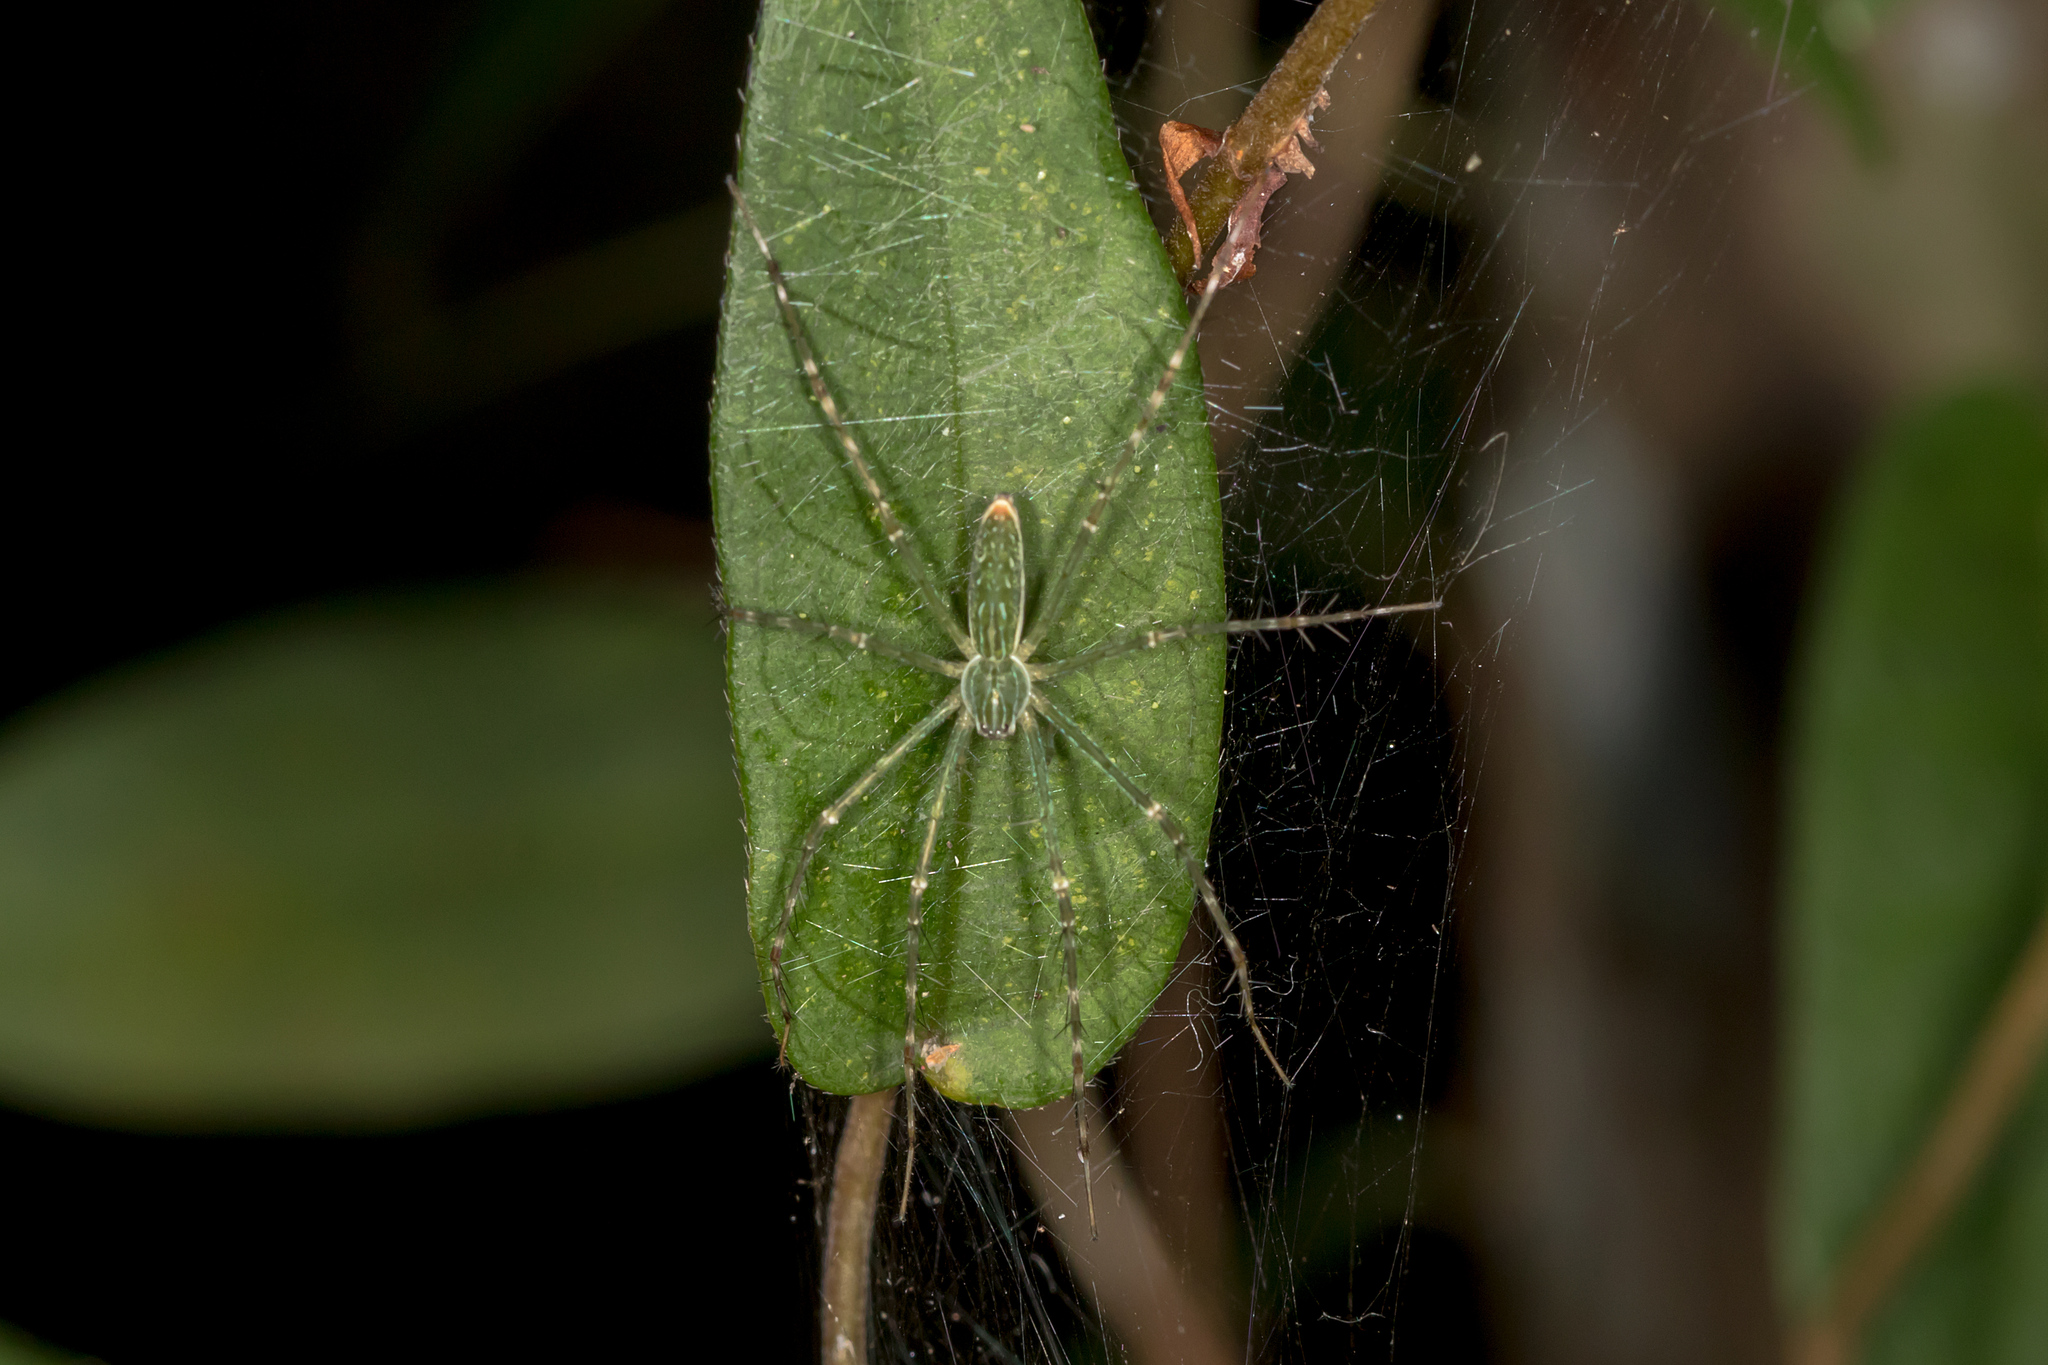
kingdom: Animalia
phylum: Arthropoda
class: Arachnida
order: Araneae
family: Pisauridae
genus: Hygropoda
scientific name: Hygropoda lineata
